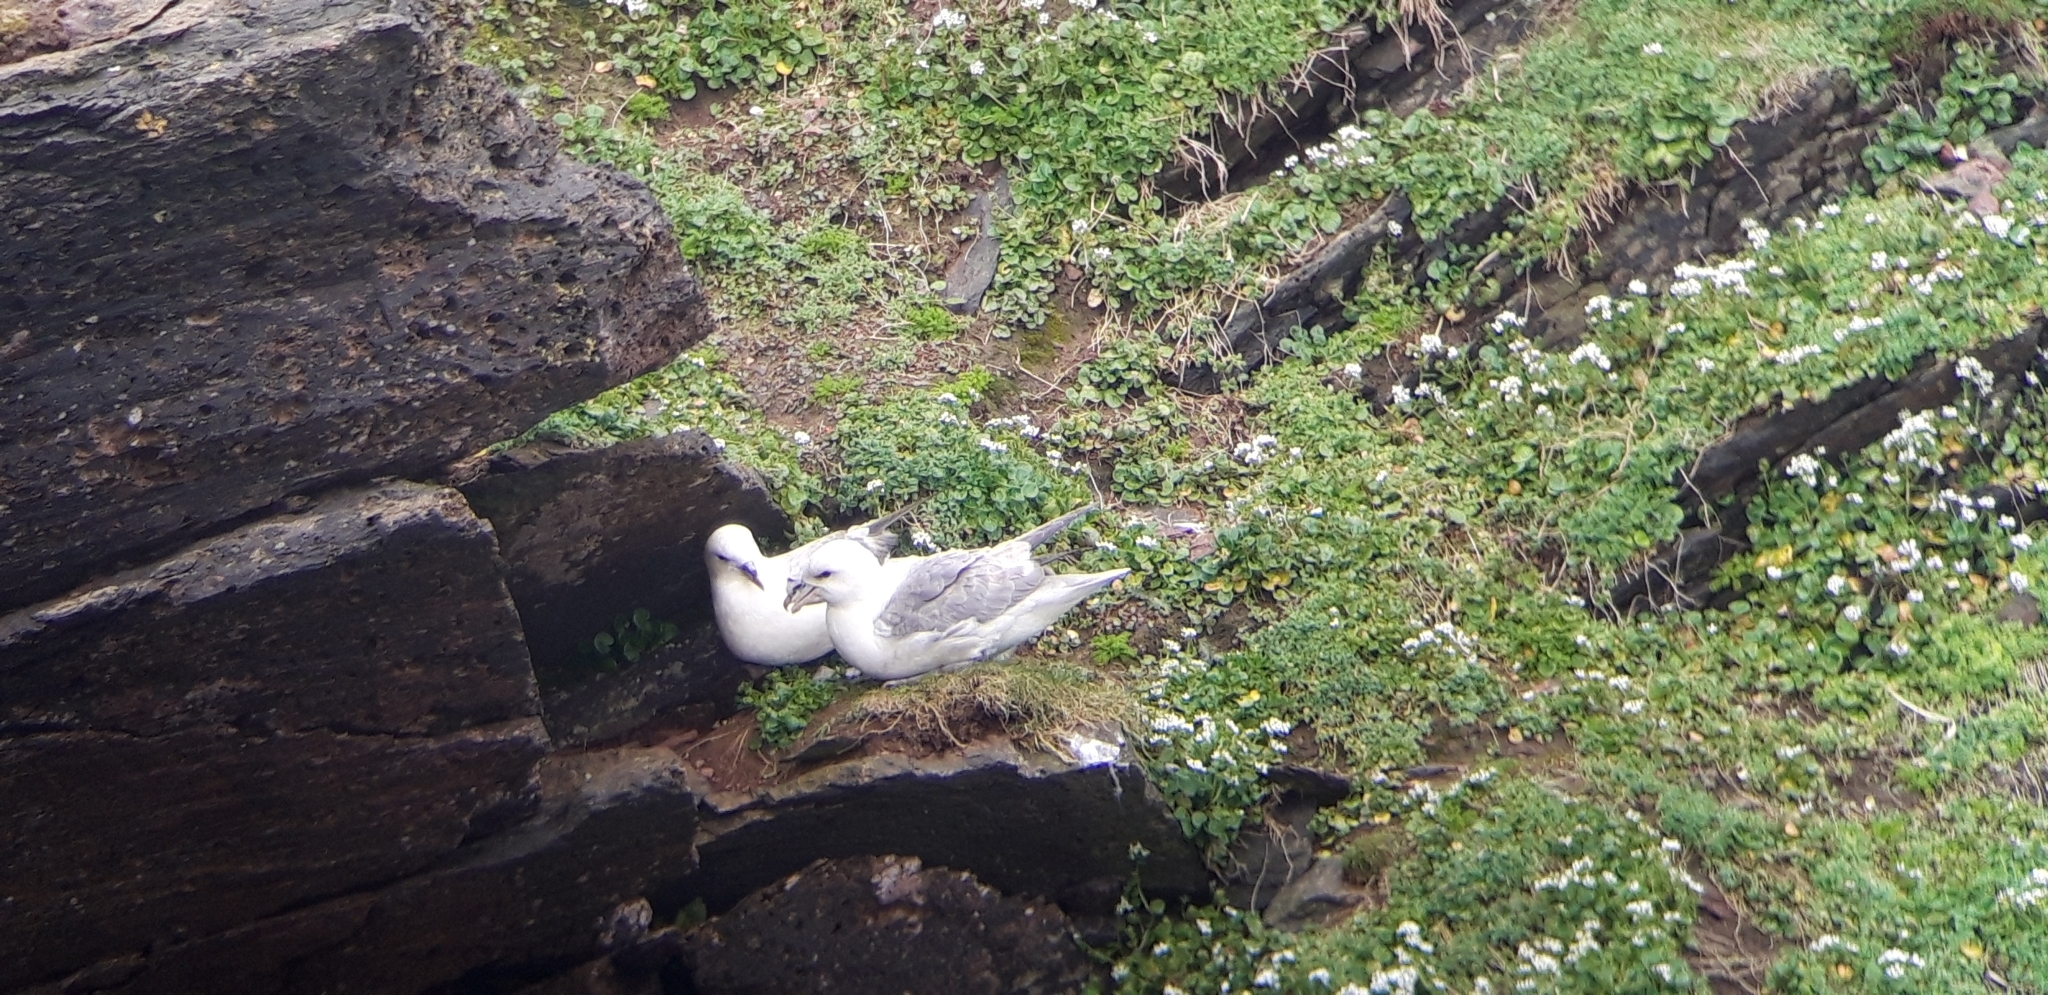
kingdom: Animalia
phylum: Chordata
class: Aves
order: Procellariiformes
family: Procellariidae
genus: Fulmarus
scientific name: Fulmarus glacialis
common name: Northern fulmar
